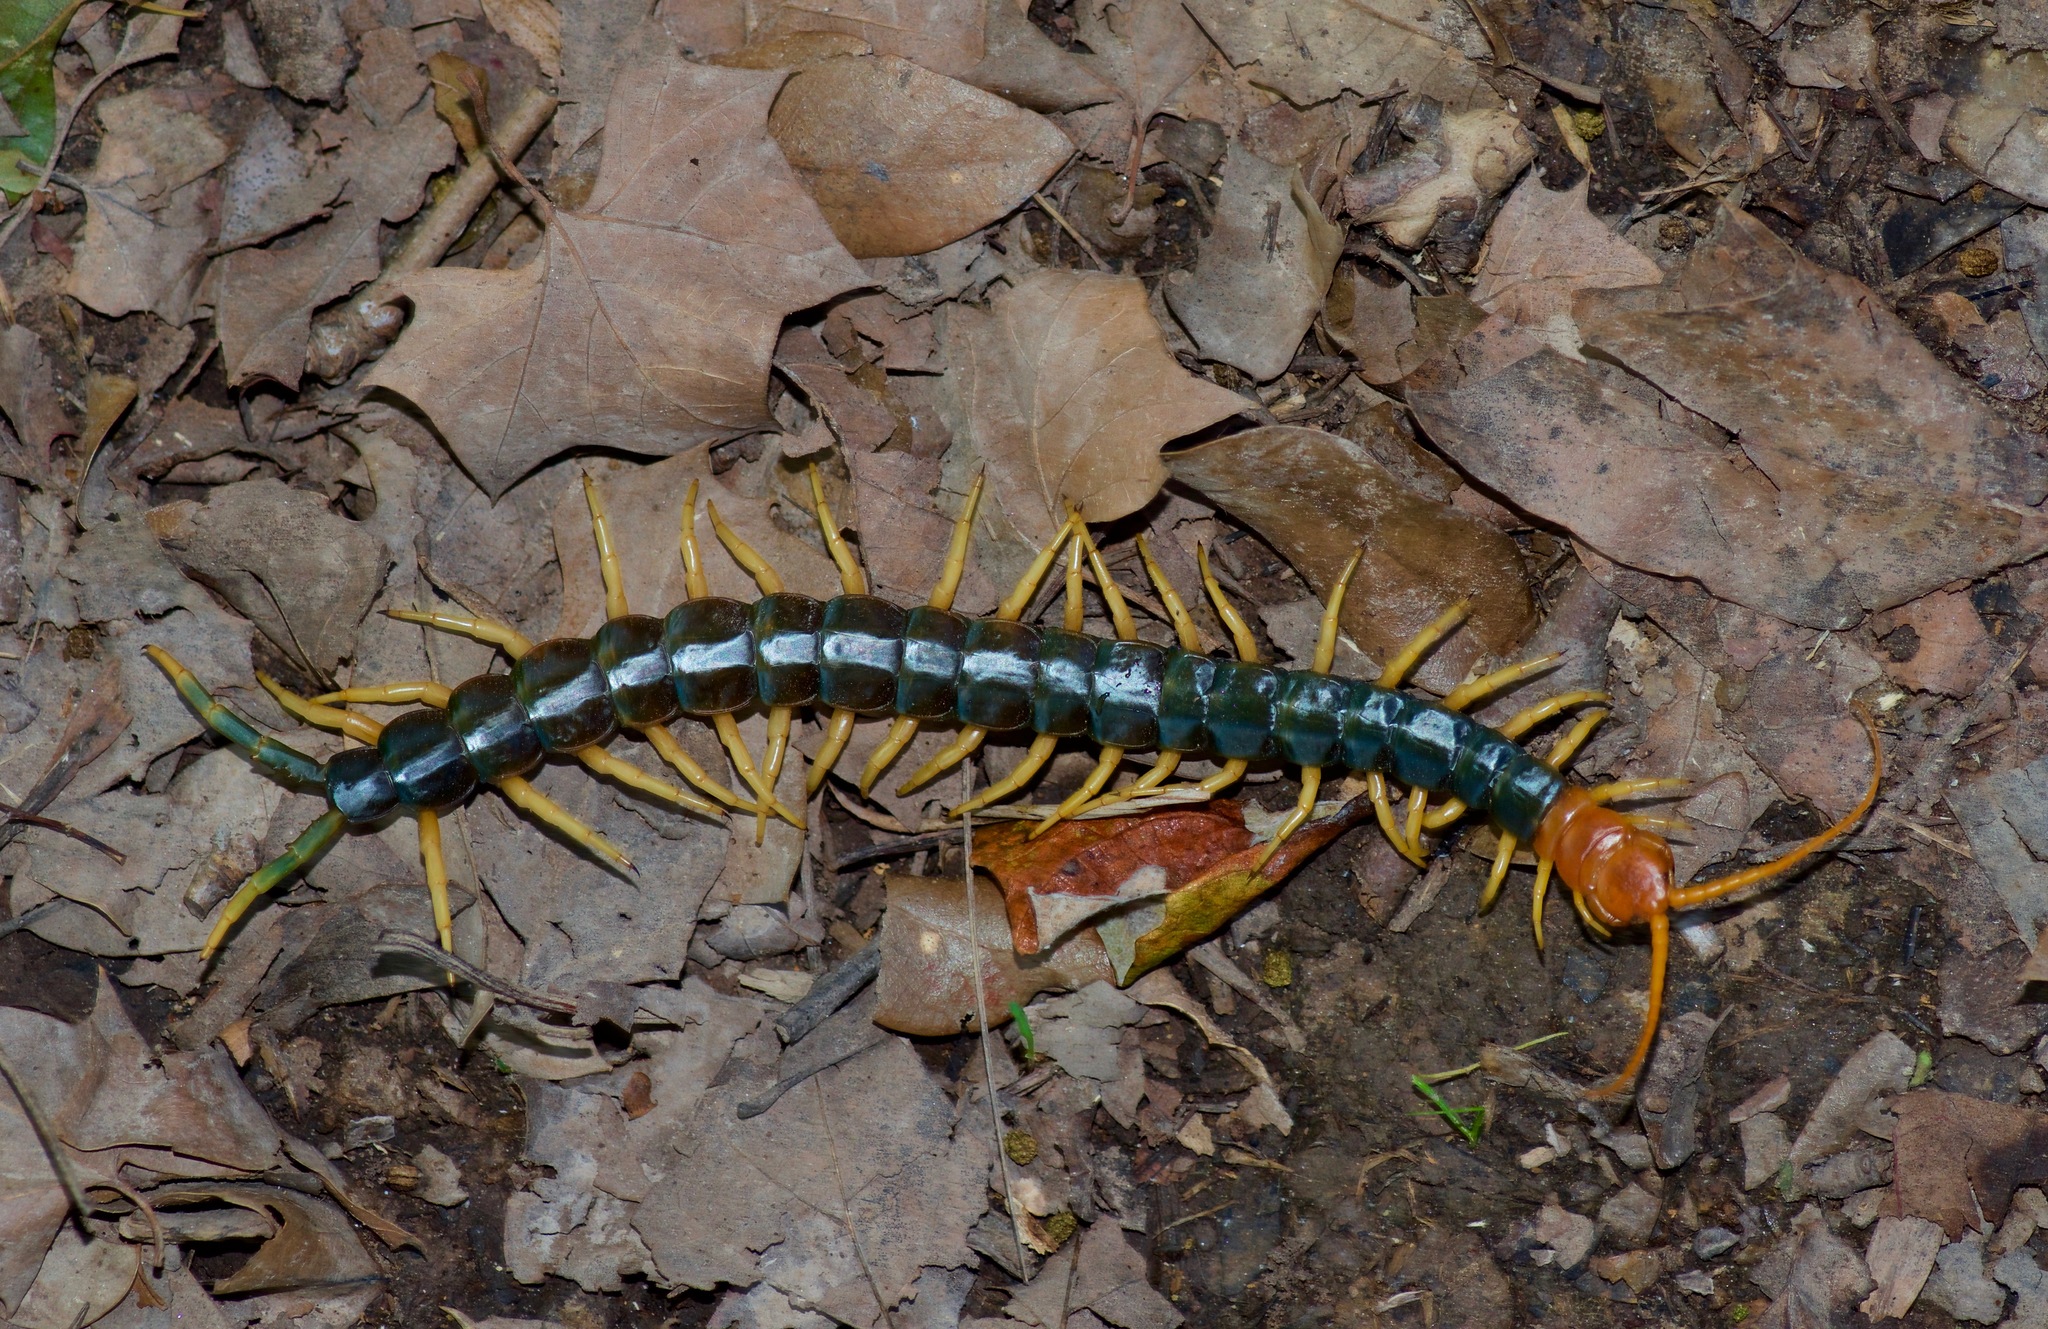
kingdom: Animalia
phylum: Arthropoda
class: Chilopoda
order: Scolopendromorpha
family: Scolopendridae
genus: Scolopendra
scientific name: Scolopendra heros
